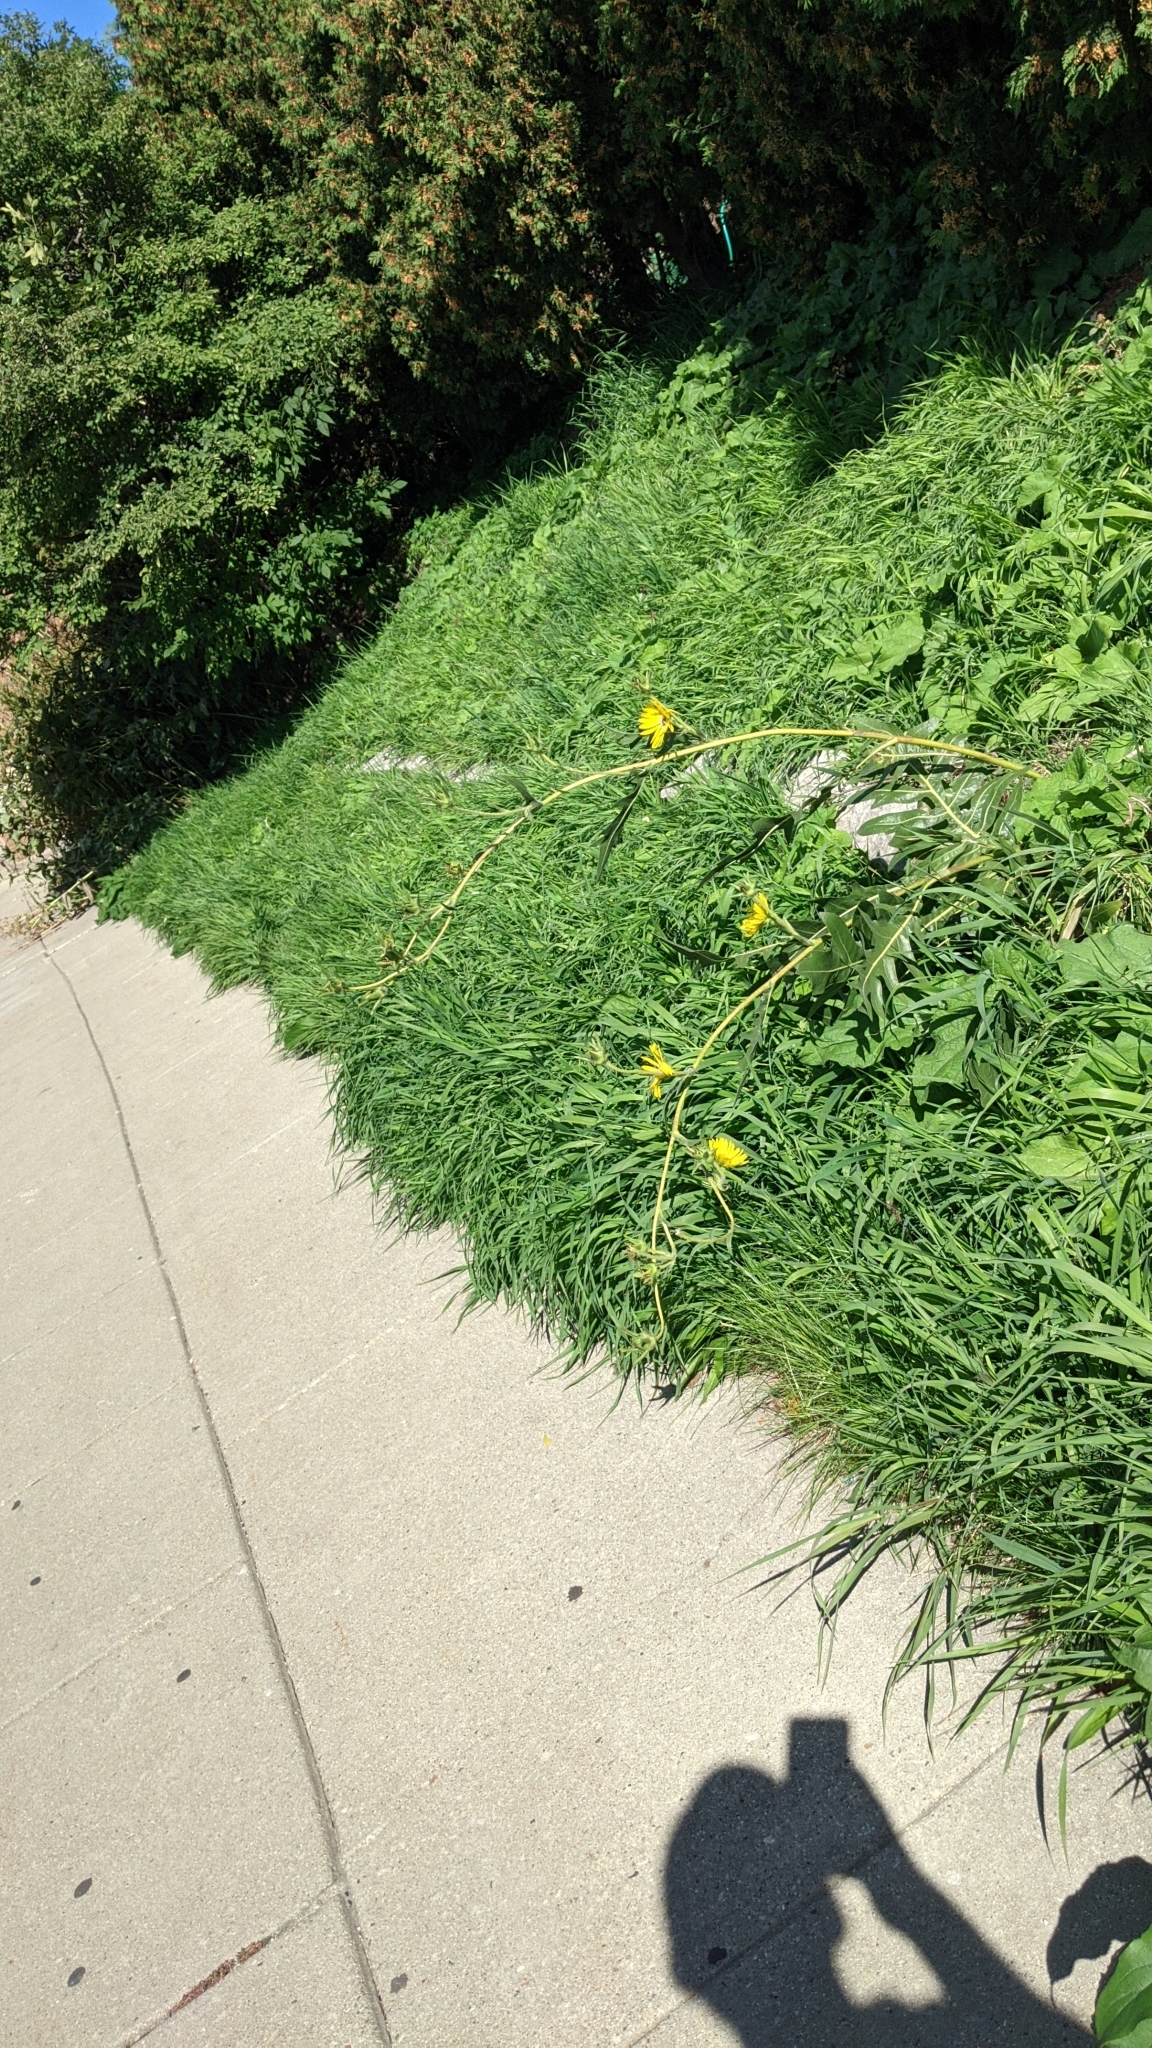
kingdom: Plantae
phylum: Tracheophyta
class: Magnoliopsida
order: Asterales
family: Asteraceae
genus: Silphium
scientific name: Silphium laciniatum
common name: Polarplant
